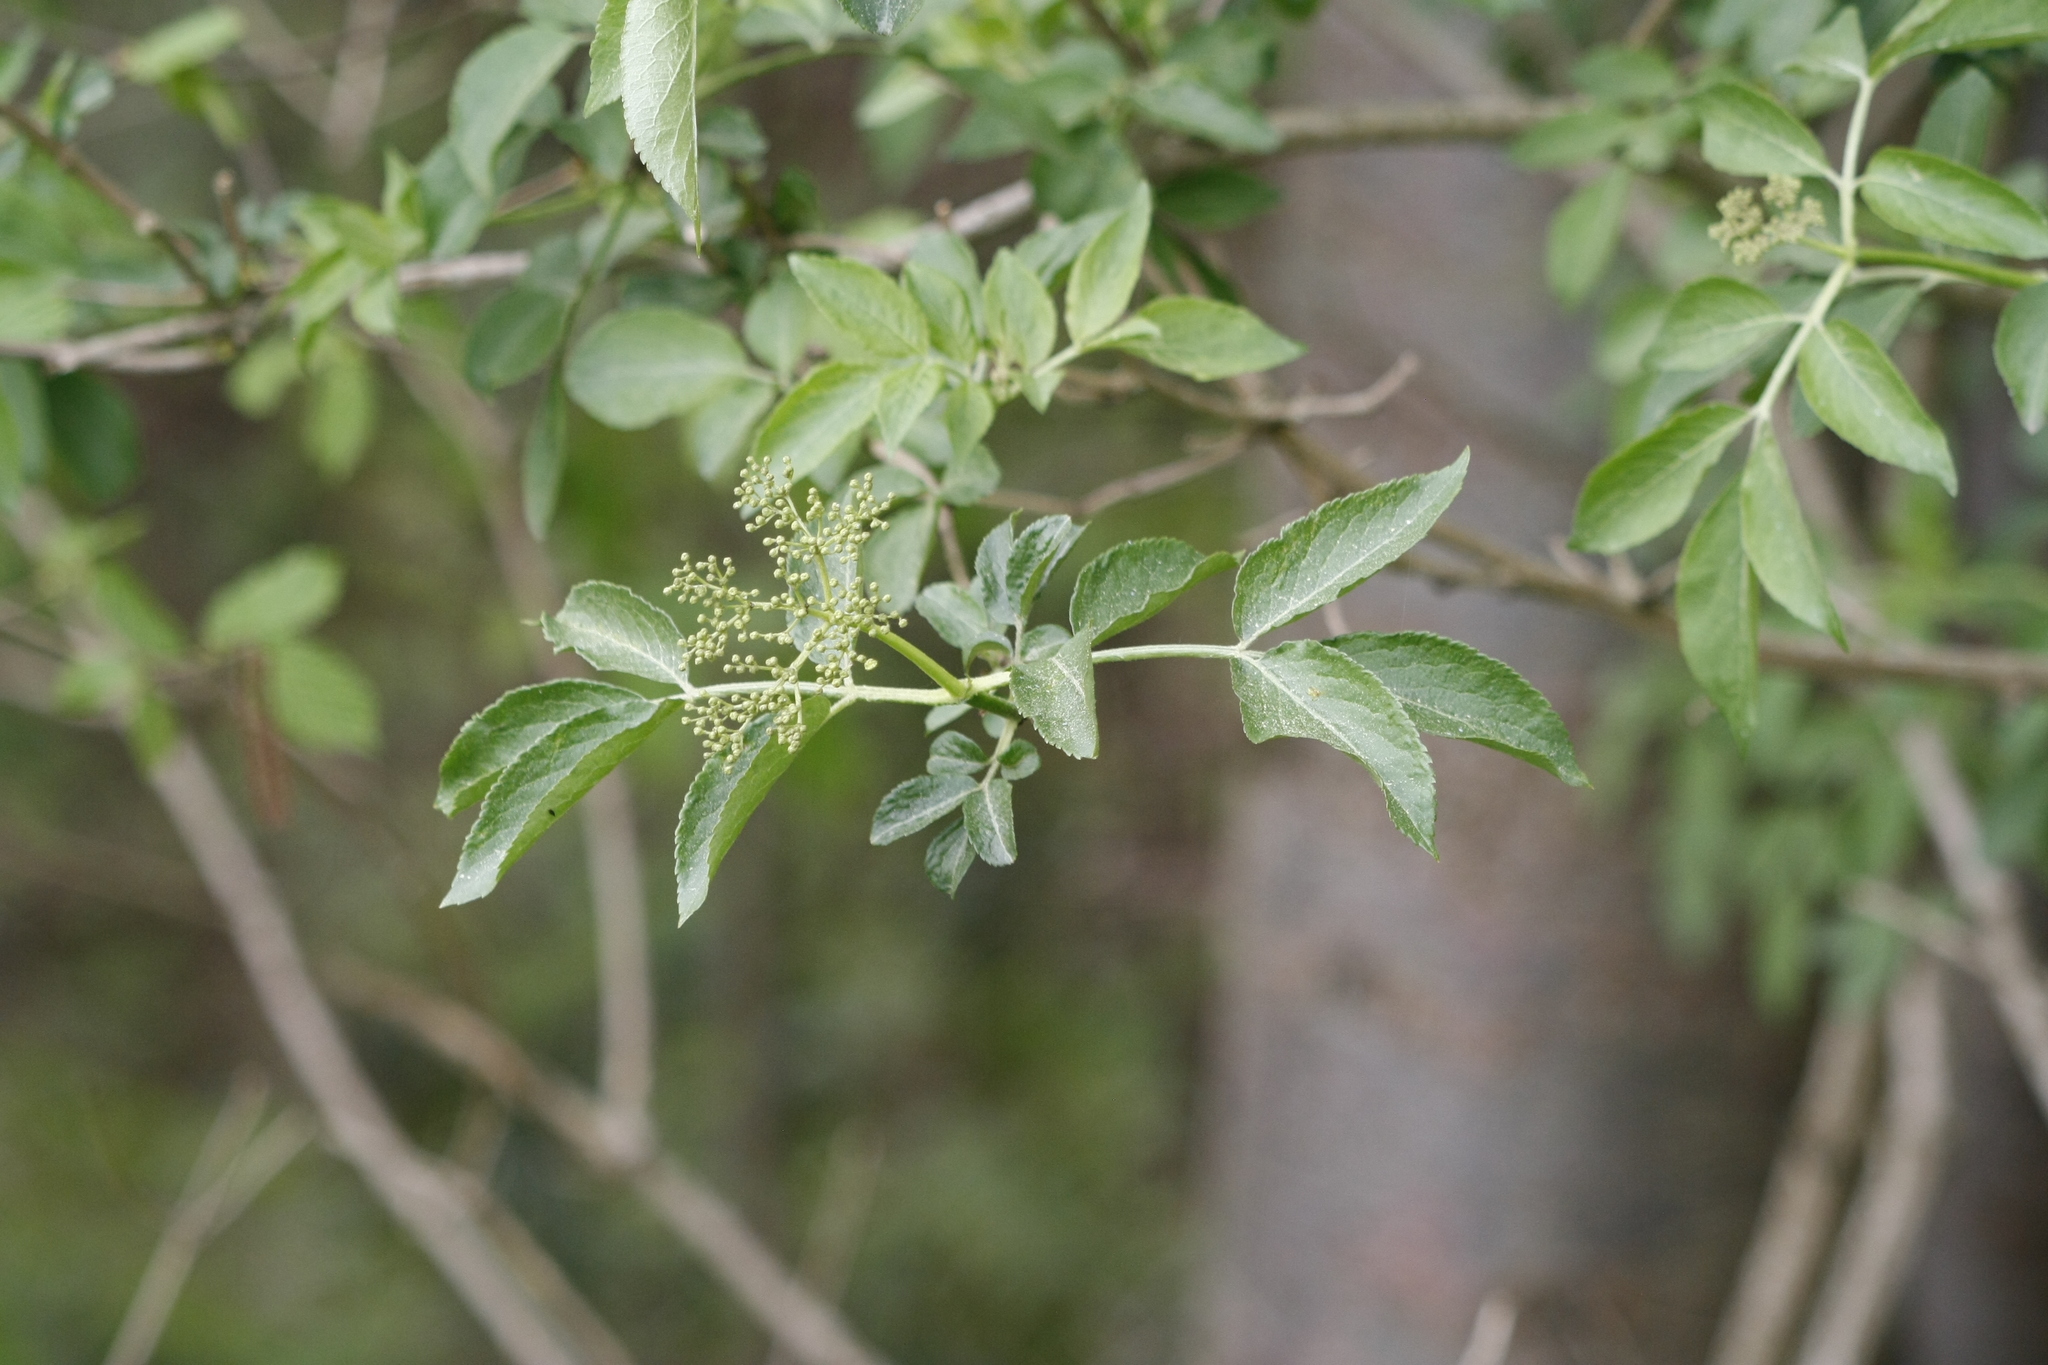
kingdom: Plantae
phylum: Tracheophyta
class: Magnoliopsida
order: Dipsacales
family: Viburnaceae
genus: Sambucus
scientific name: Sambucus nigra
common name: Elder
